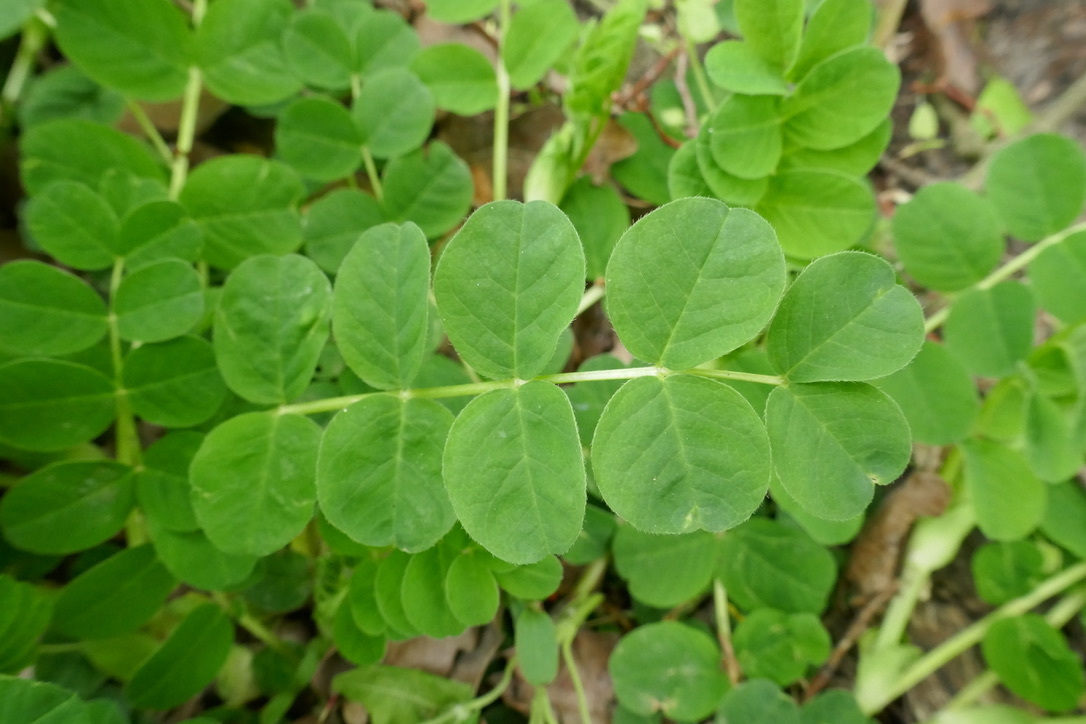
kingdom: Plantae
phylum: Tracheophyta
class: Magnoliopsida
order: Fabales
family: Fabaceae
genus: Astragalus
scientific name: Astragalus glycyphyllos
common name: Wild liquorice
